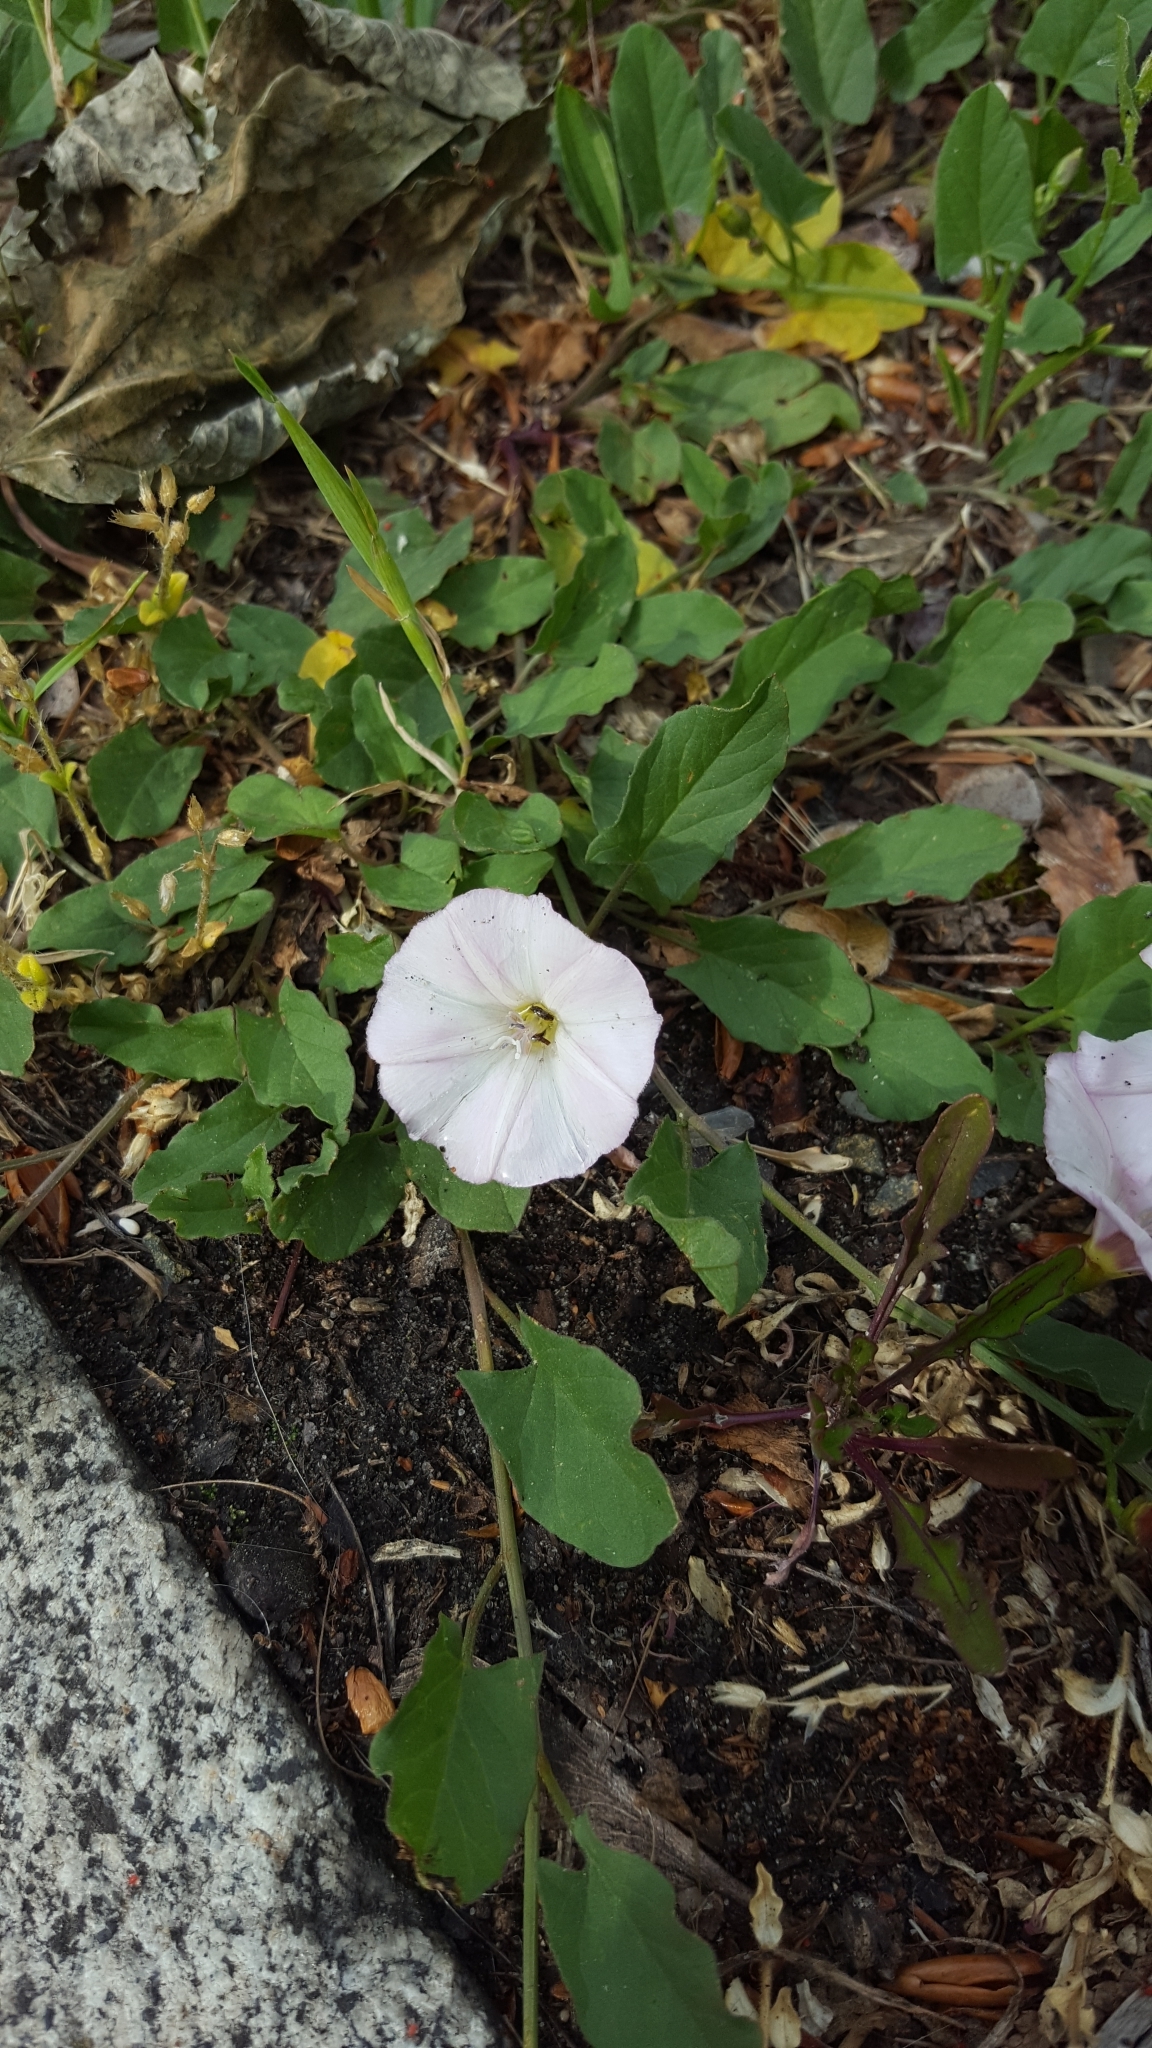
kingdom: Plantae
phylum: Tracheophyta
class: Magnoliopsida
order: Solanales
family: Convolvulaceae
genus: Convolvulus
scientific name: Convolvulus arvensis
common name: Field bindweed
